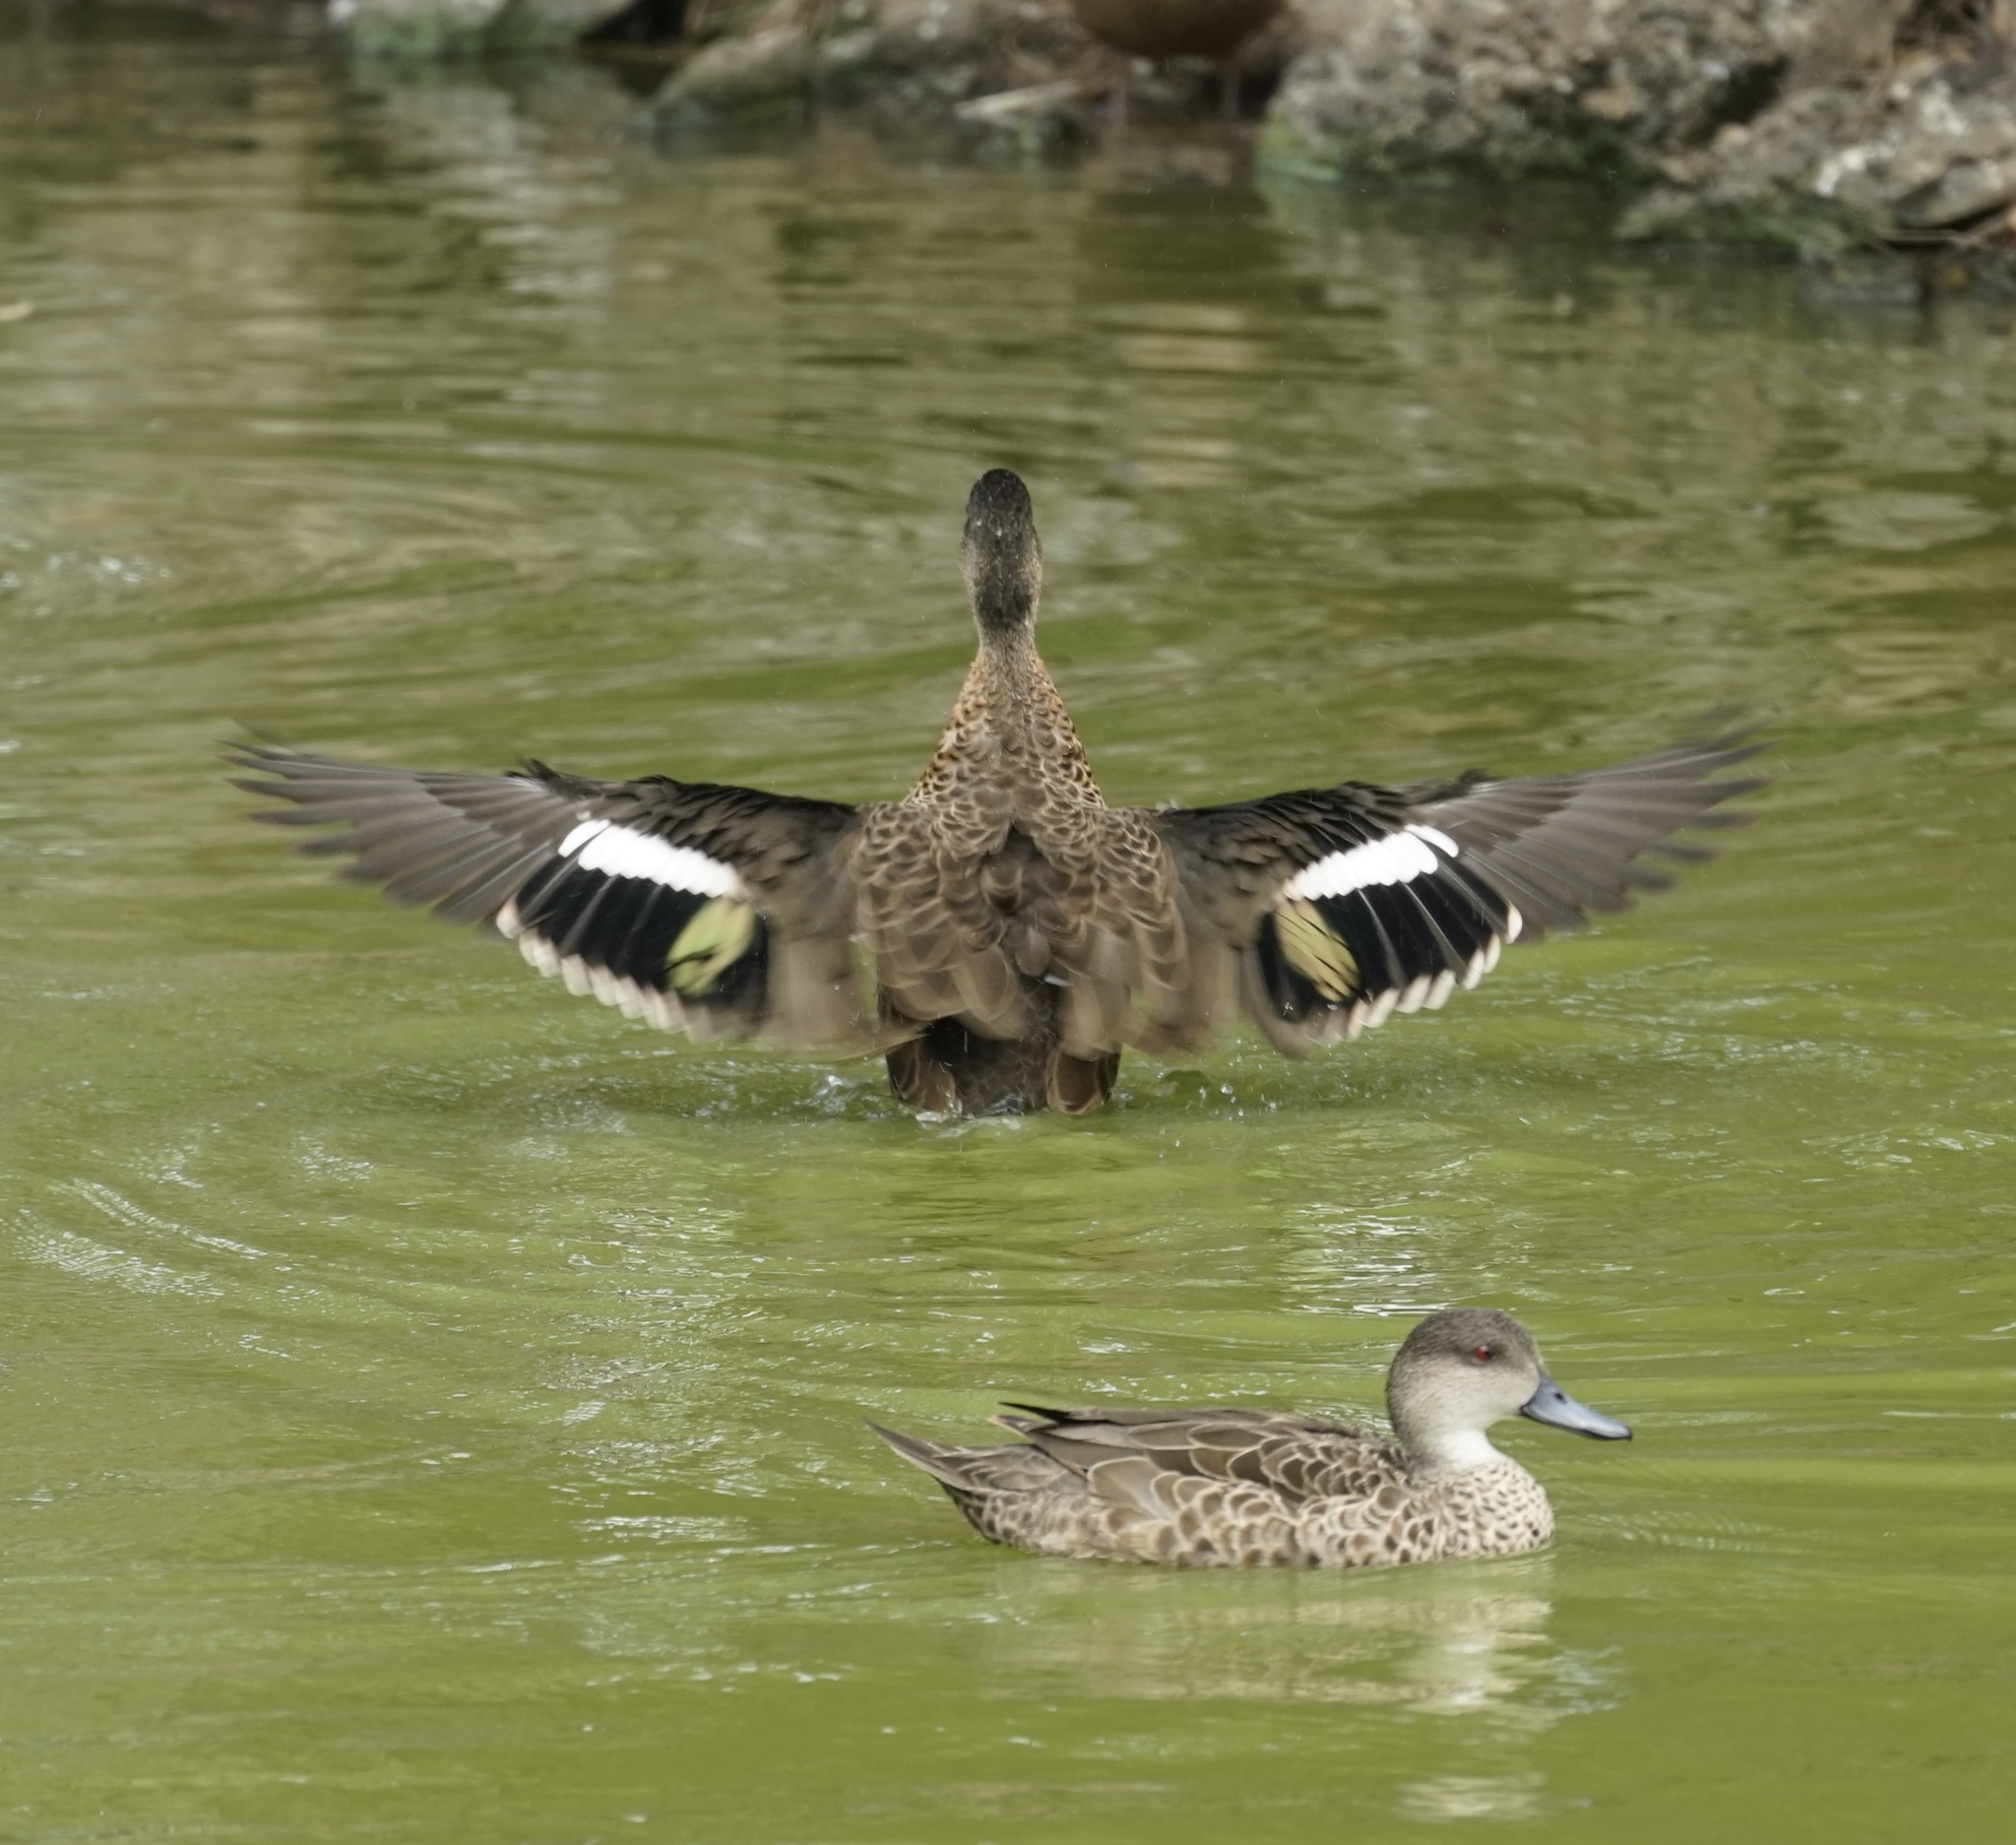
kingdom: Animalia
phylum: Chordata
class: Aves
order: Anseriformes
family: Anatidae
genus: Anas
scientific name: Anas castanea
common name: Chestnut teal
